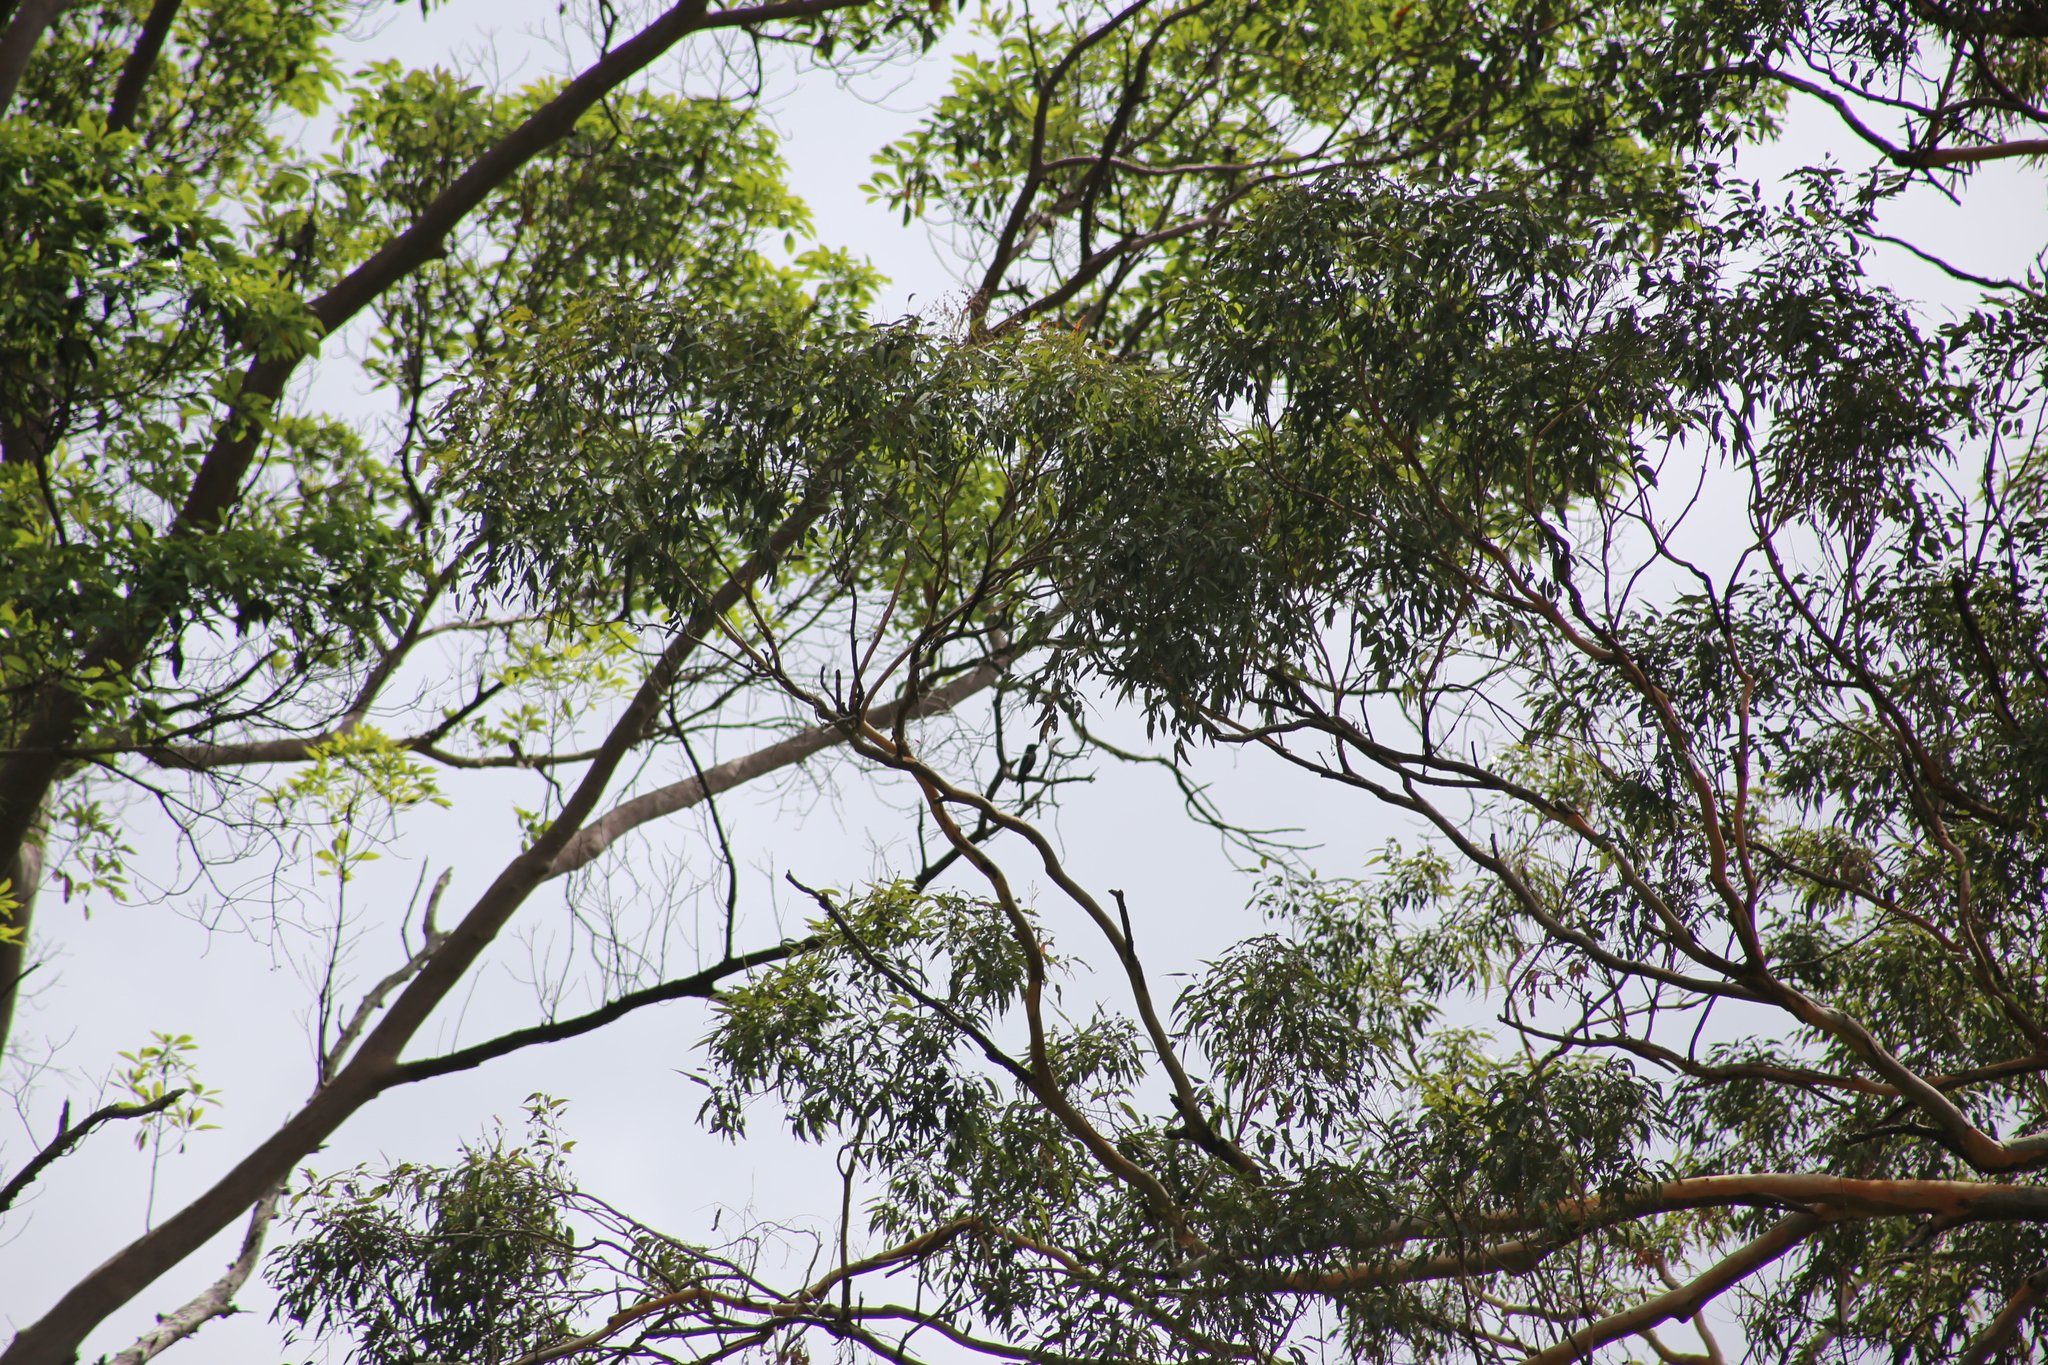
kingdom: Animalia
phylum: Chordata
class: Aves
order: Passeriformes
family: Dicruridae
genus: Dicrurus
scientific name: Dicrurus bracteatus
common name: Spangled drongo
